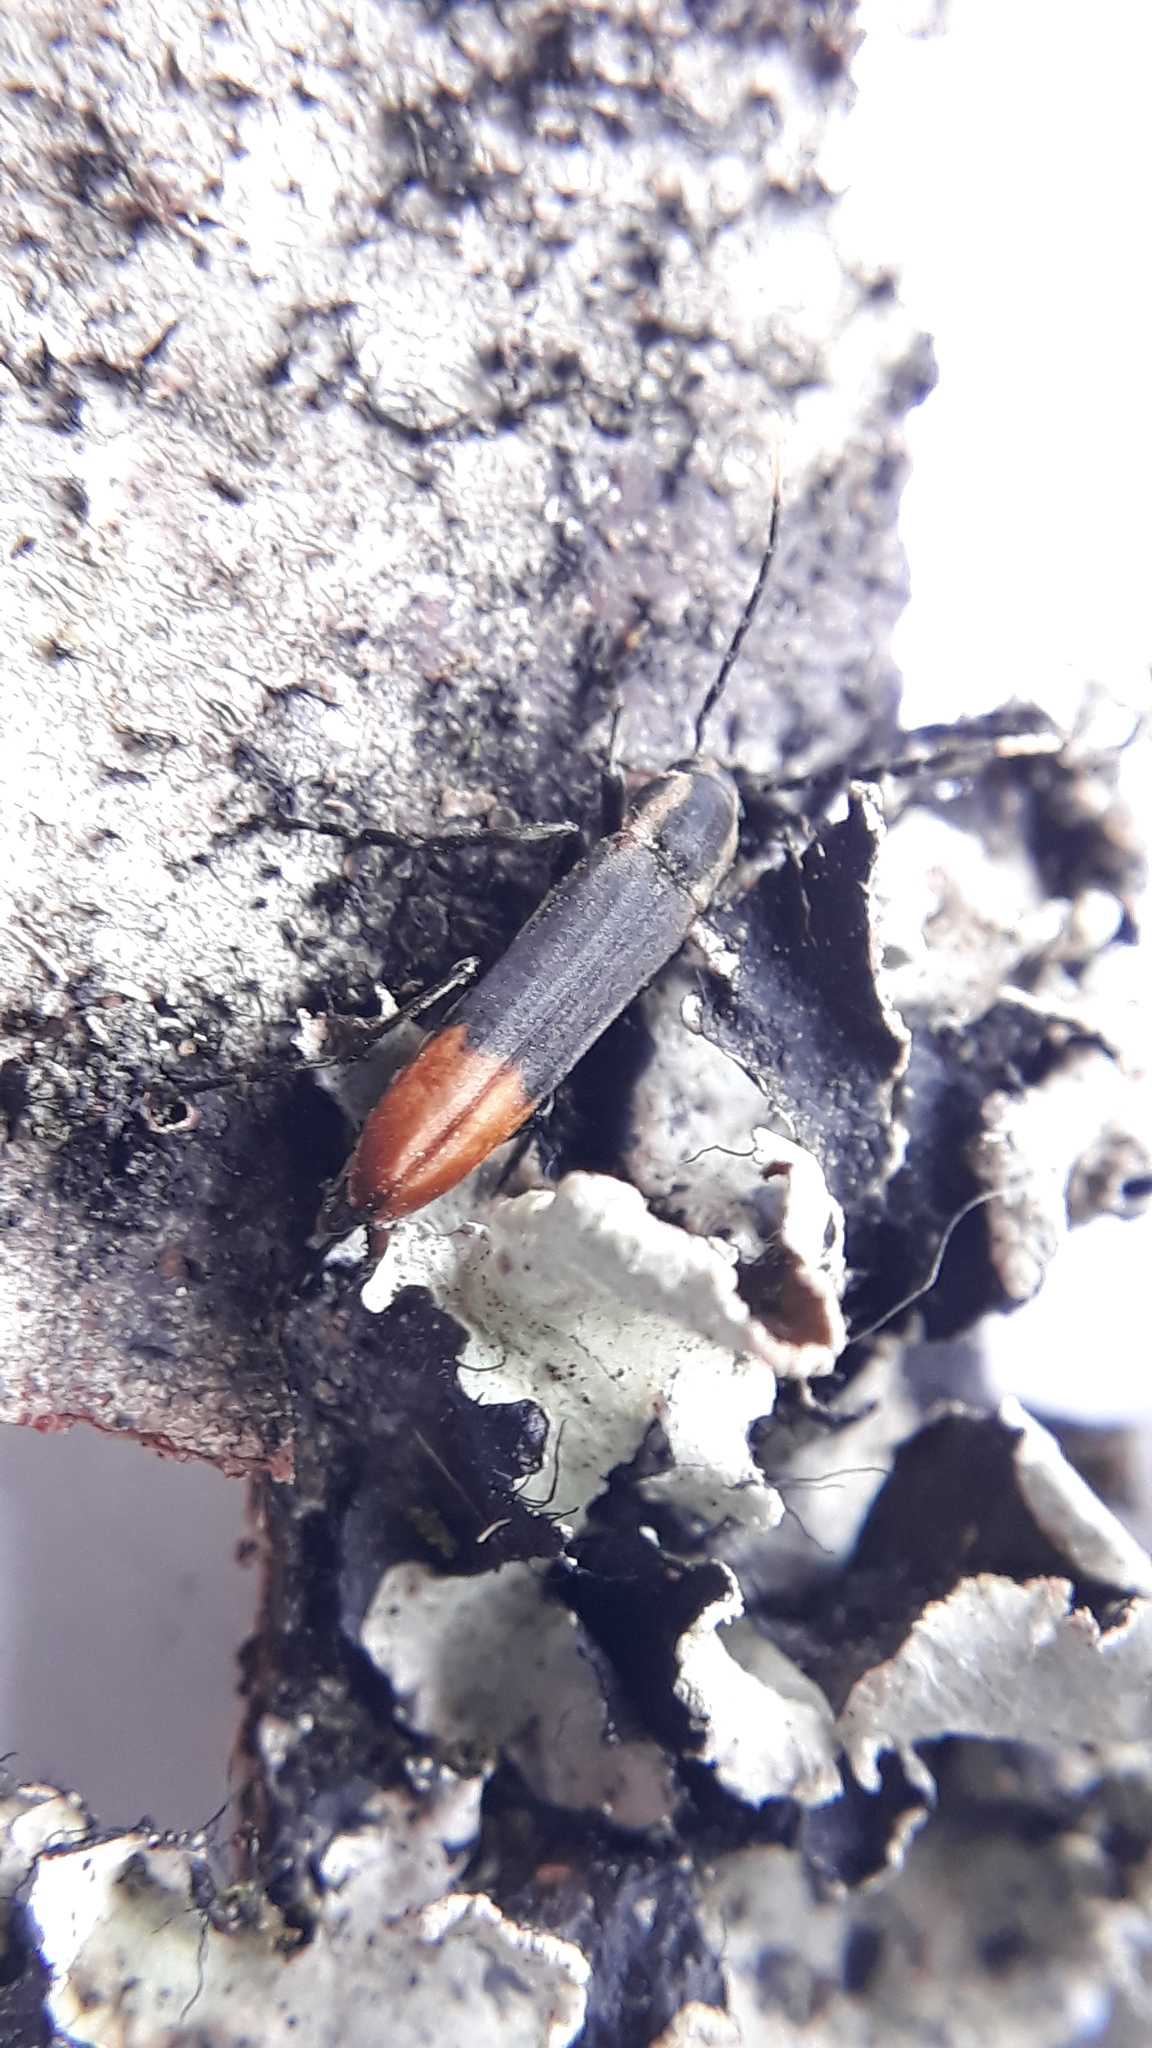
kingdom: Animalia
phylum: Arthropoda
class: Insecta
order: Coleoptera
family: Melandryidae
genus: Eudircaea
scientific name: Eudircaea
